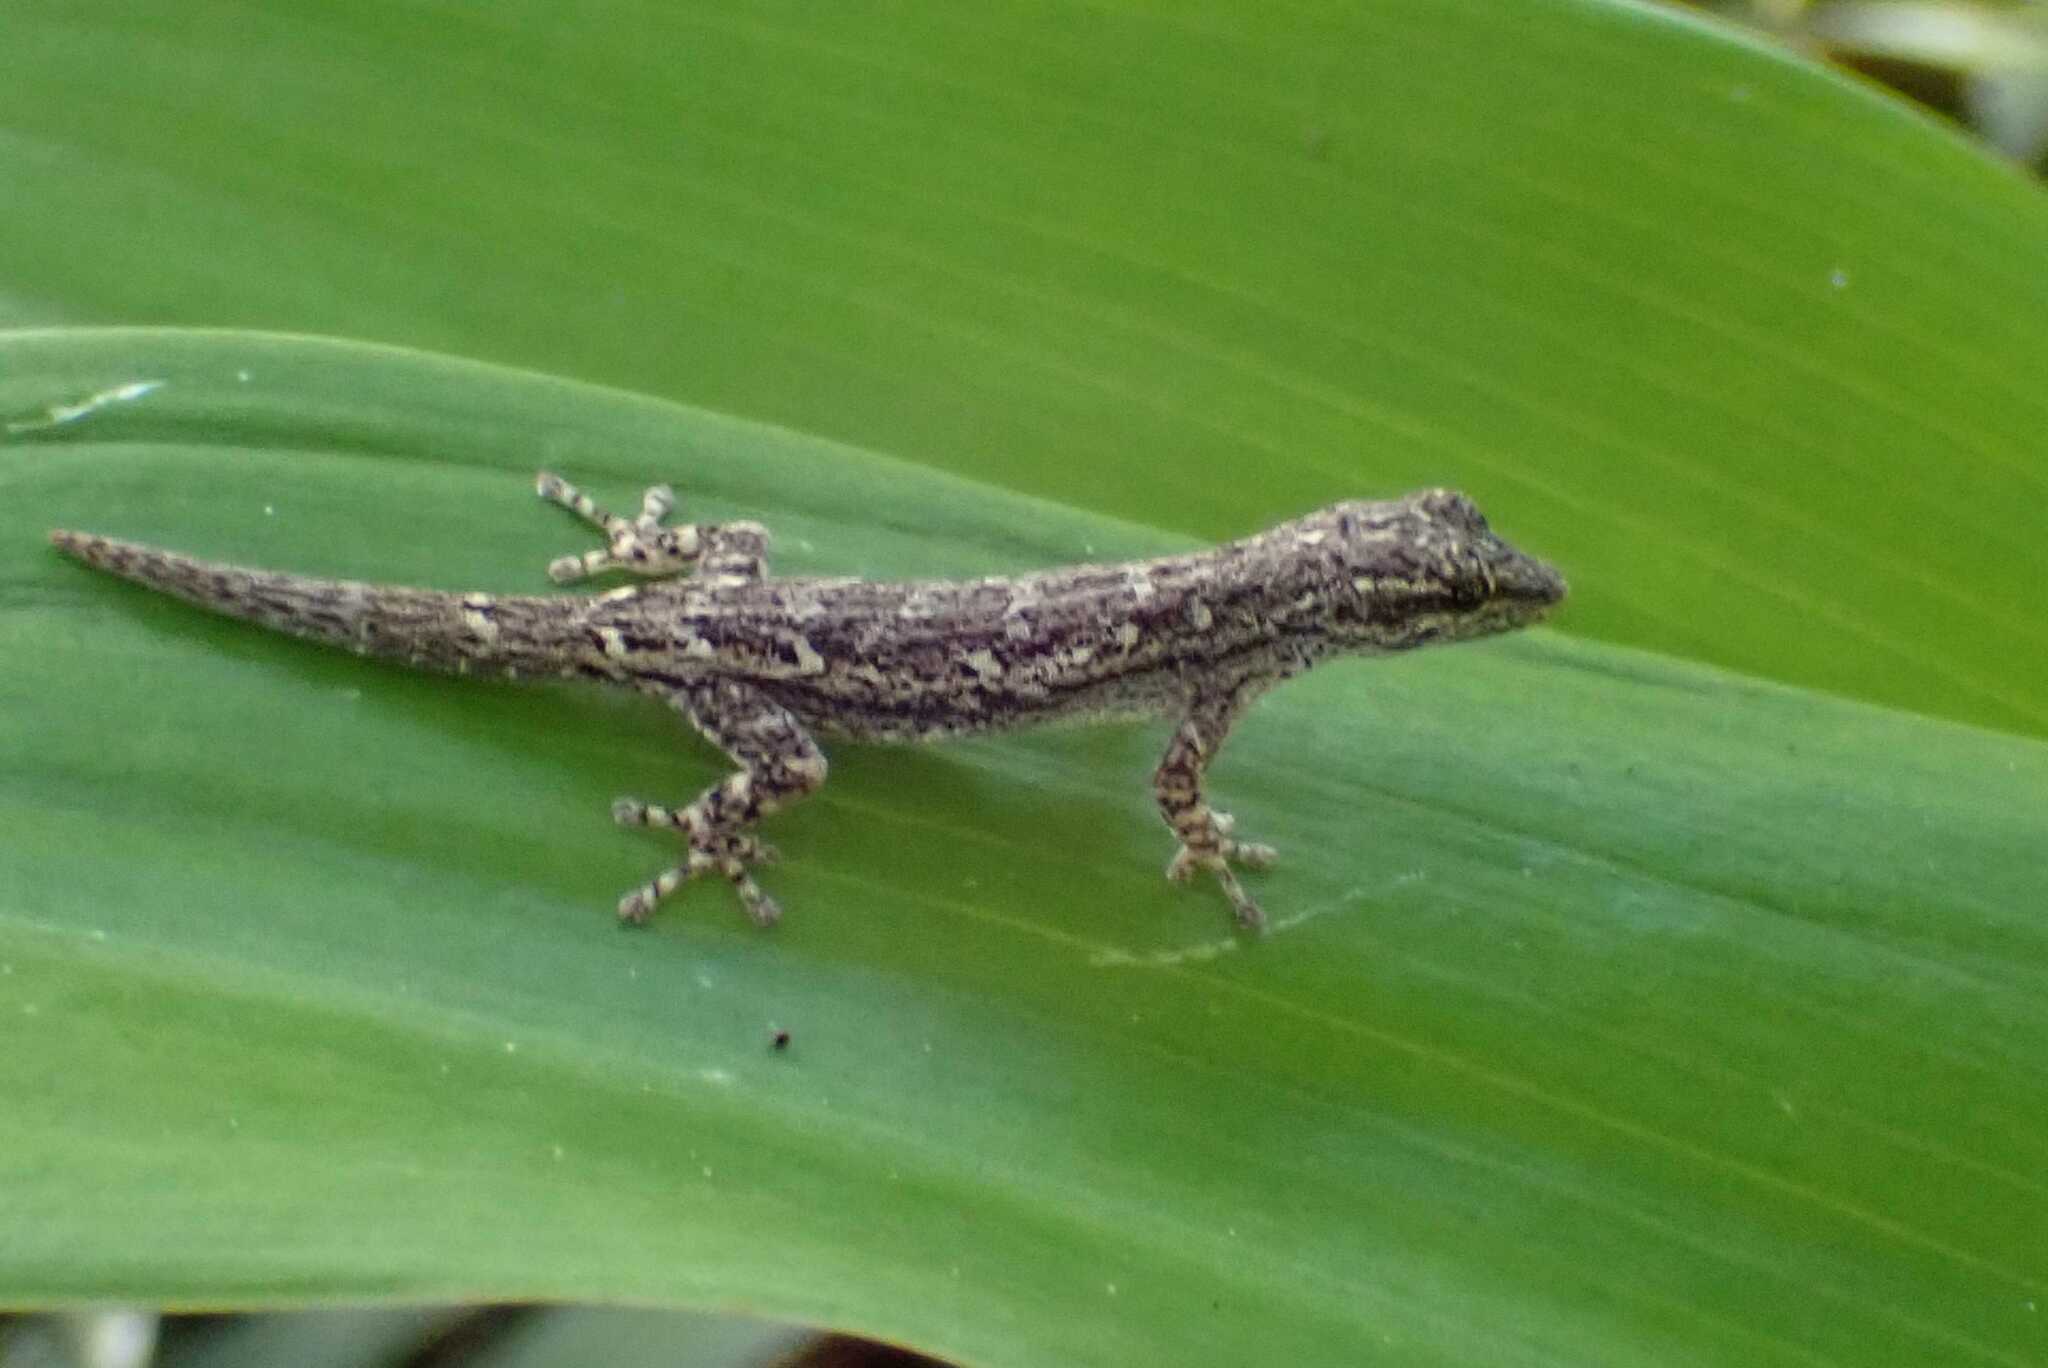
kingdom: Animalia
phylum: Chordata
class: Squamata
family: Gekkonidae
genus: Lygodactylus
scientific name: Lygodactylus capensis
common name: Cape dwarf gecko
